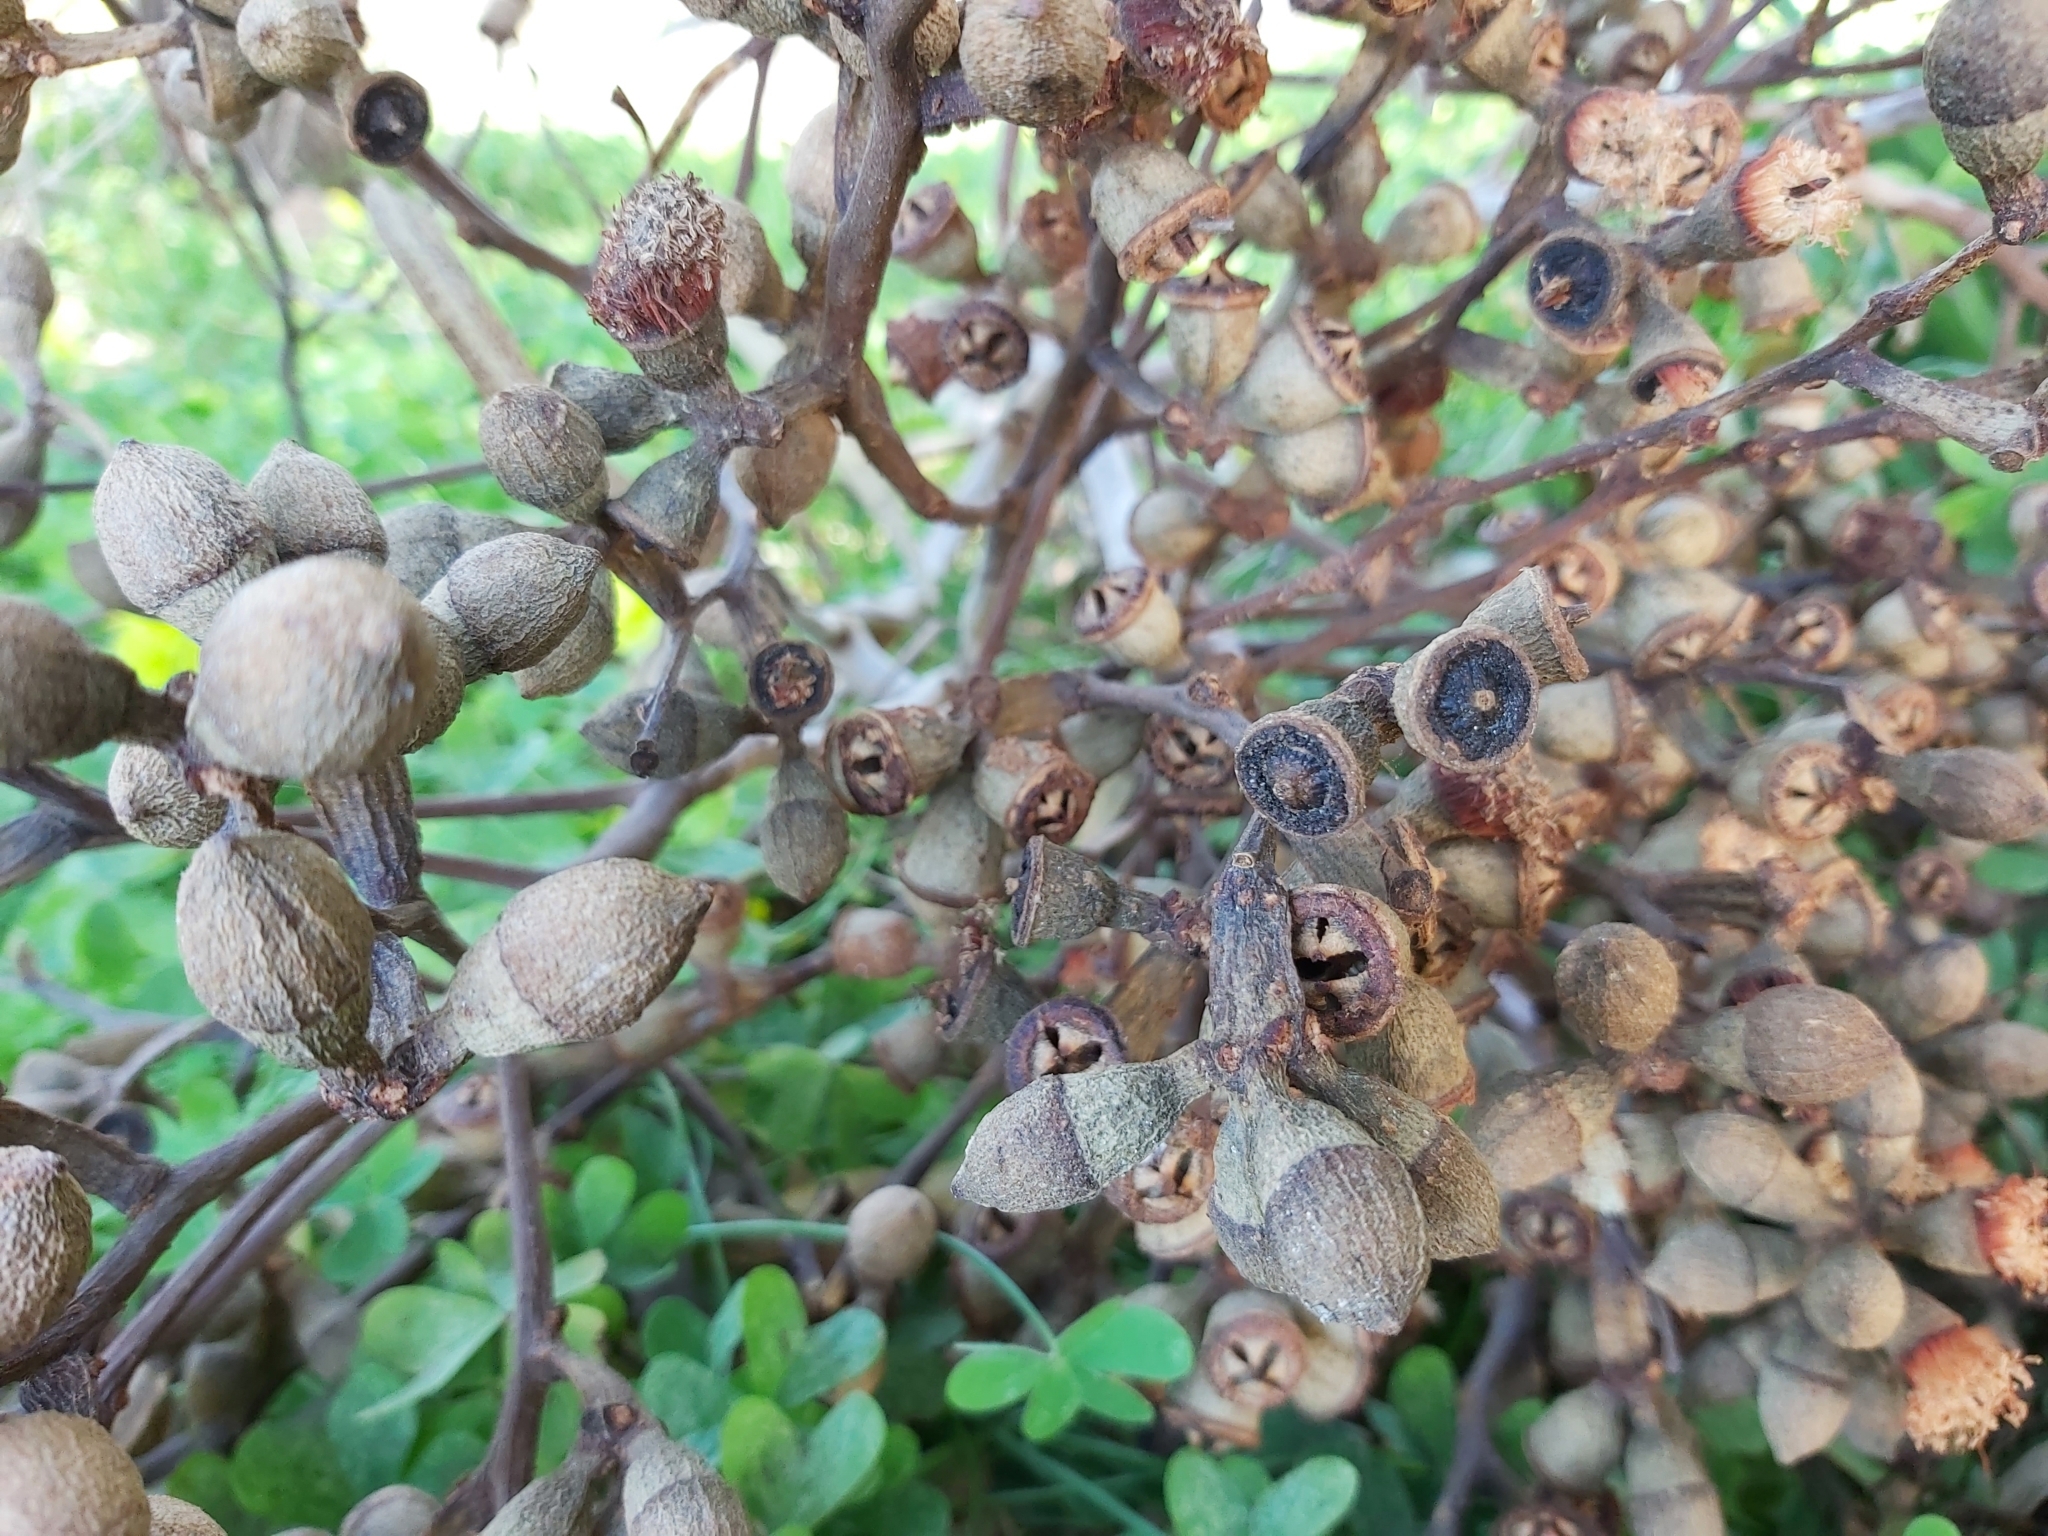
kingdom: Plantae
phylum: Tracheophyta
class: Magnoliopsida
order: Myrtales
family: Myrtaceae
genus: Eucalyptus
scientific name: Eucalyptus gomphocephala
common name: Tuart
